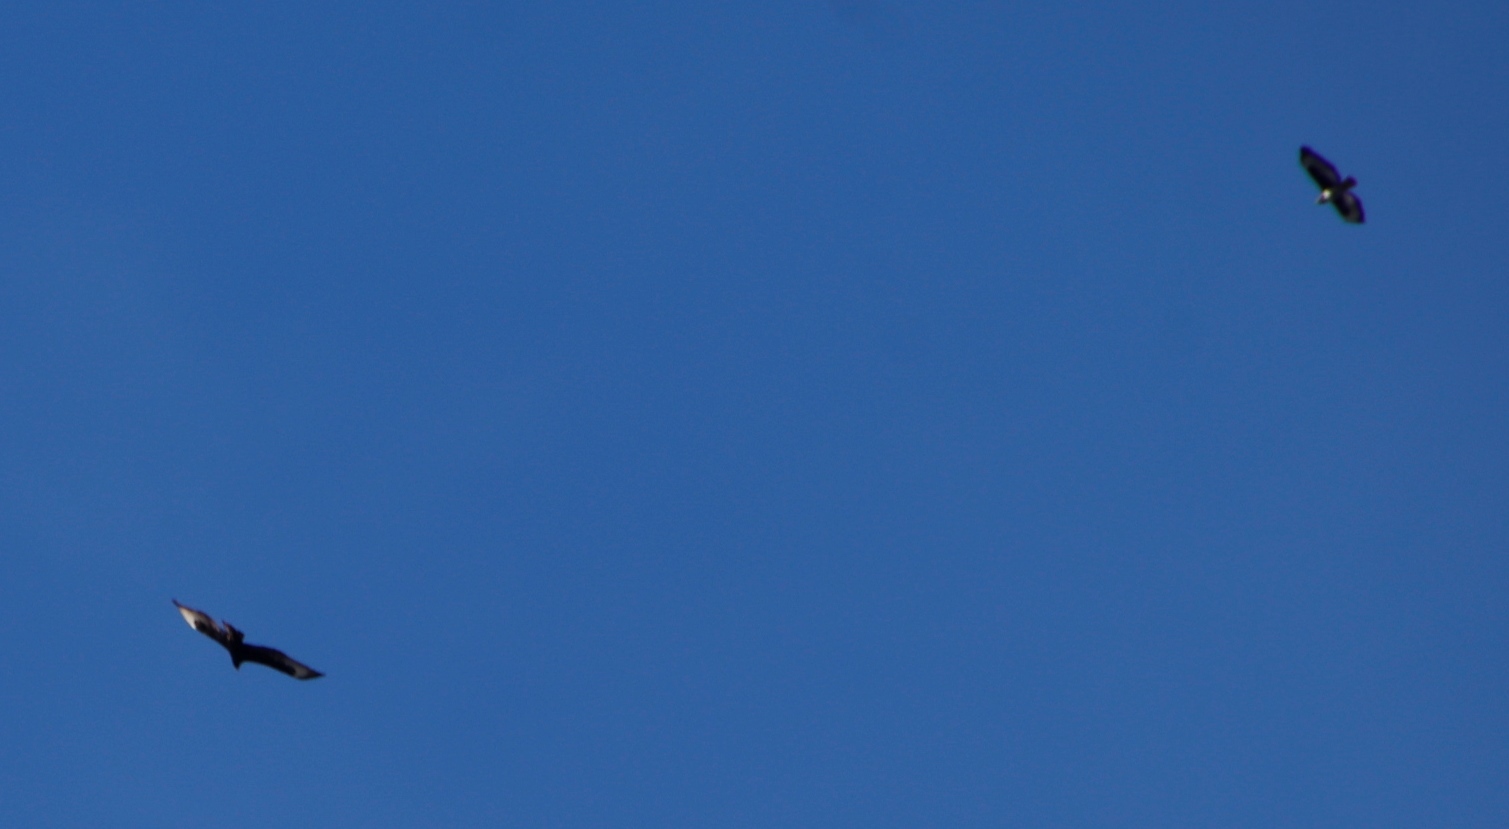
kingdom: Animalia
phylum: Chordata
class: Aves
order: Passeriformes
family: Corvidae
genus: Corvus
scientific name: Corvus albicollis
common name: White-necked raven
